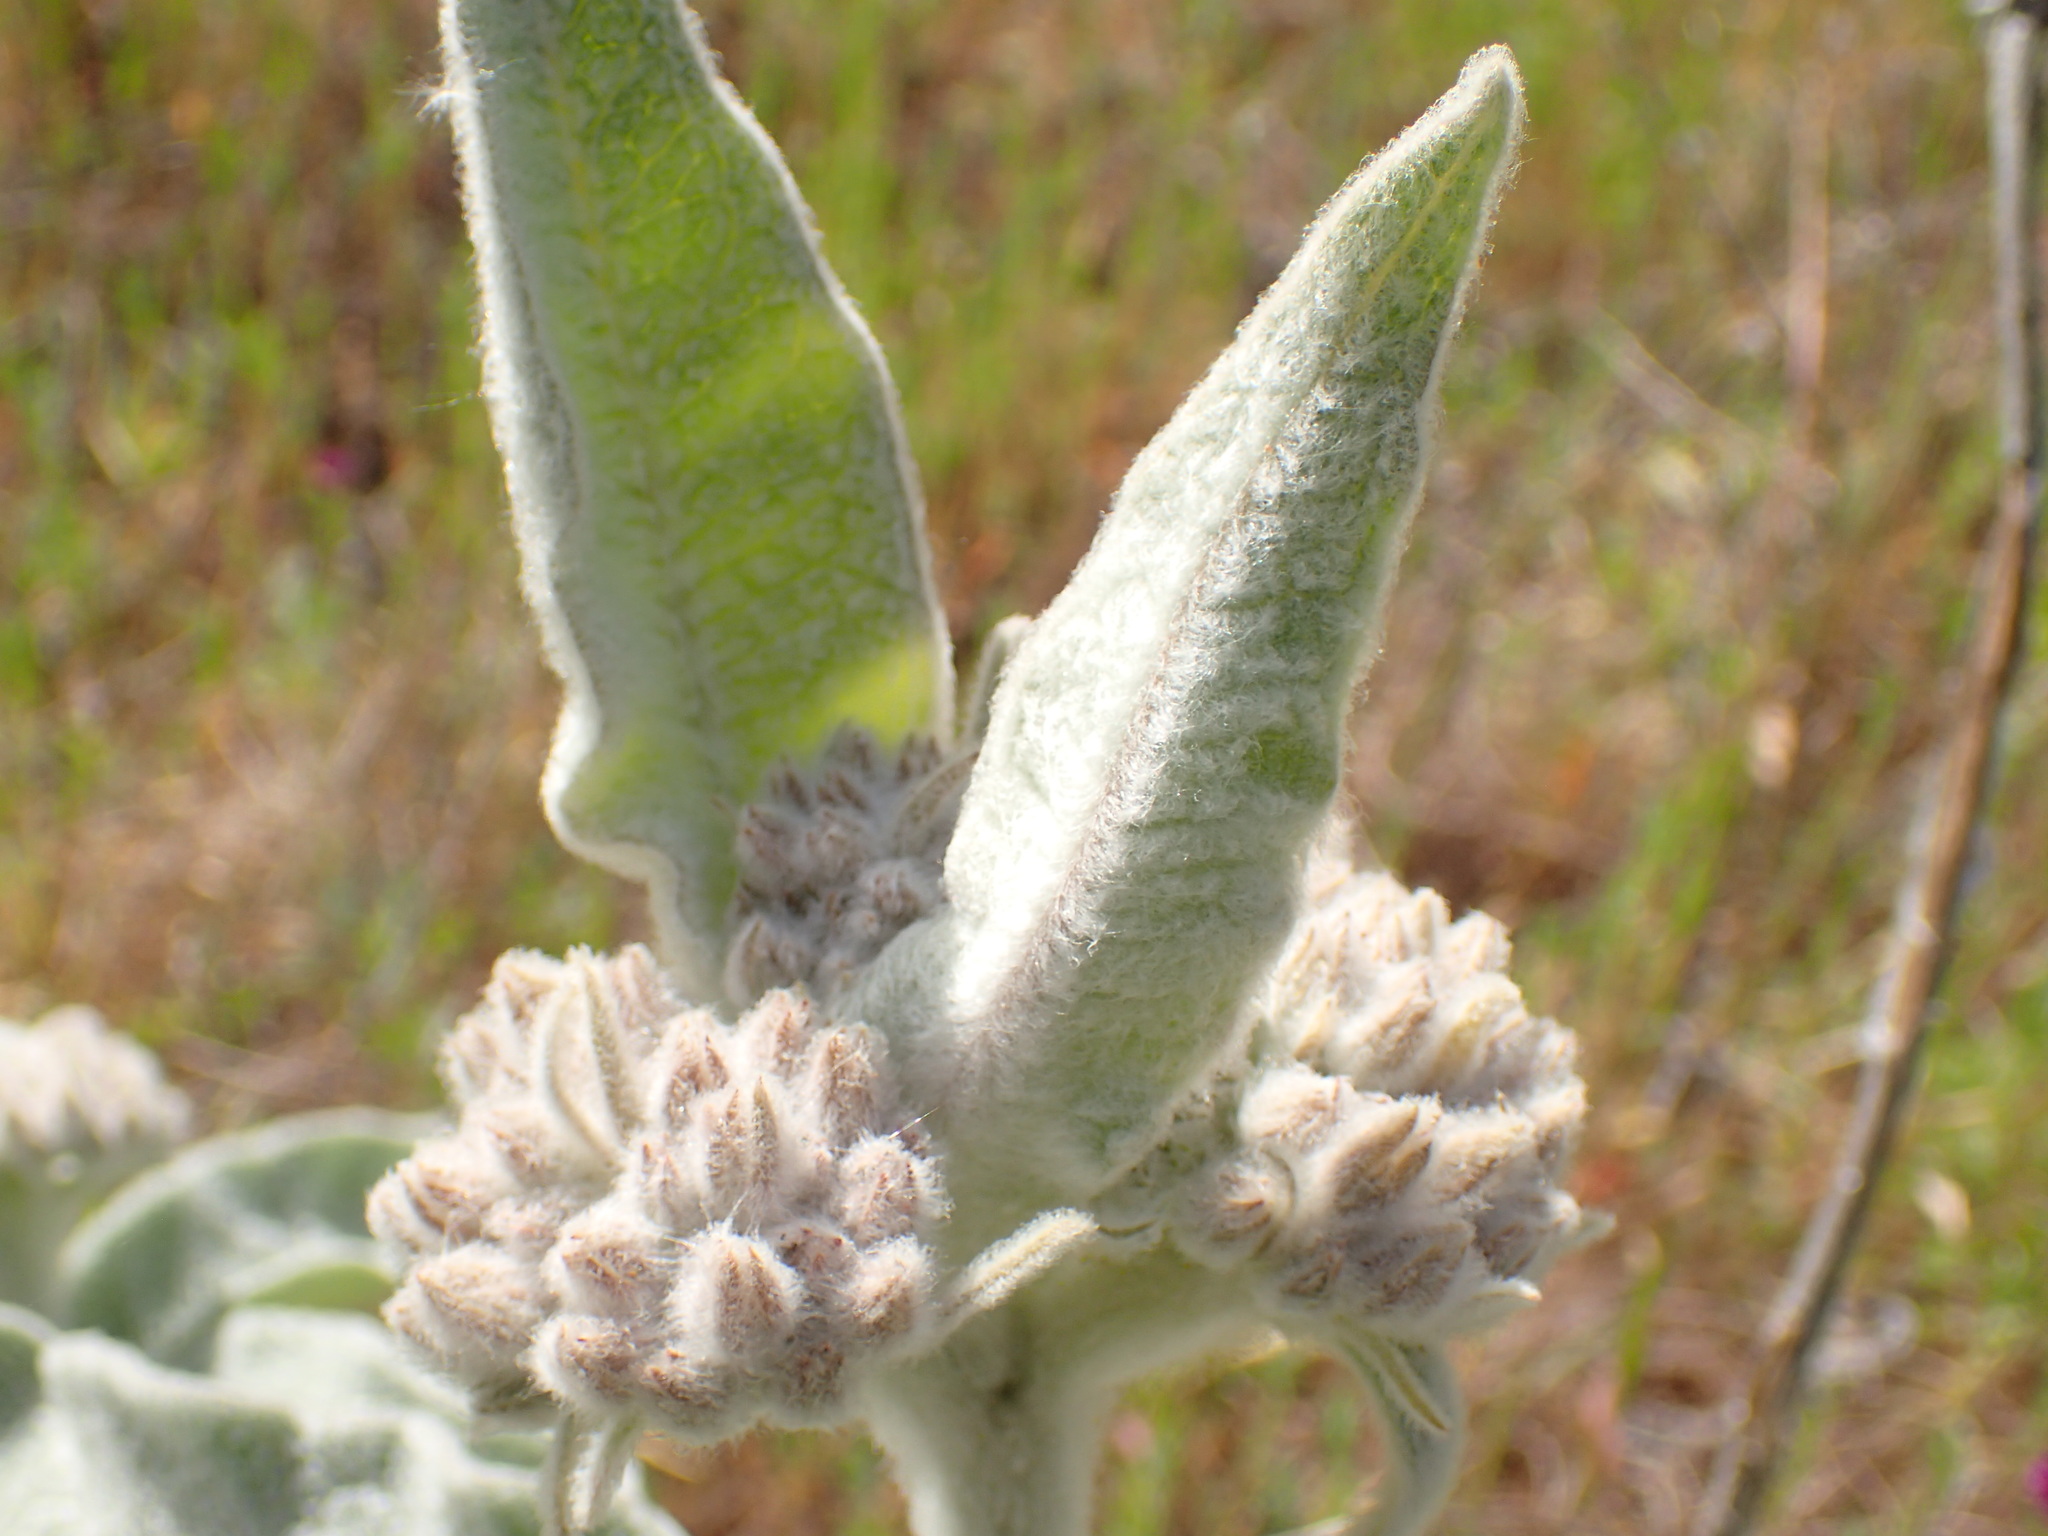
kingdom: Plantae
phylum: Tracheophyta
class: Magnoliopsida
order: Gentianales
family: Apocynaceae
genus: Asclepias
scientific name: Asclepias eriocarpa
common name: Indian milkweed
